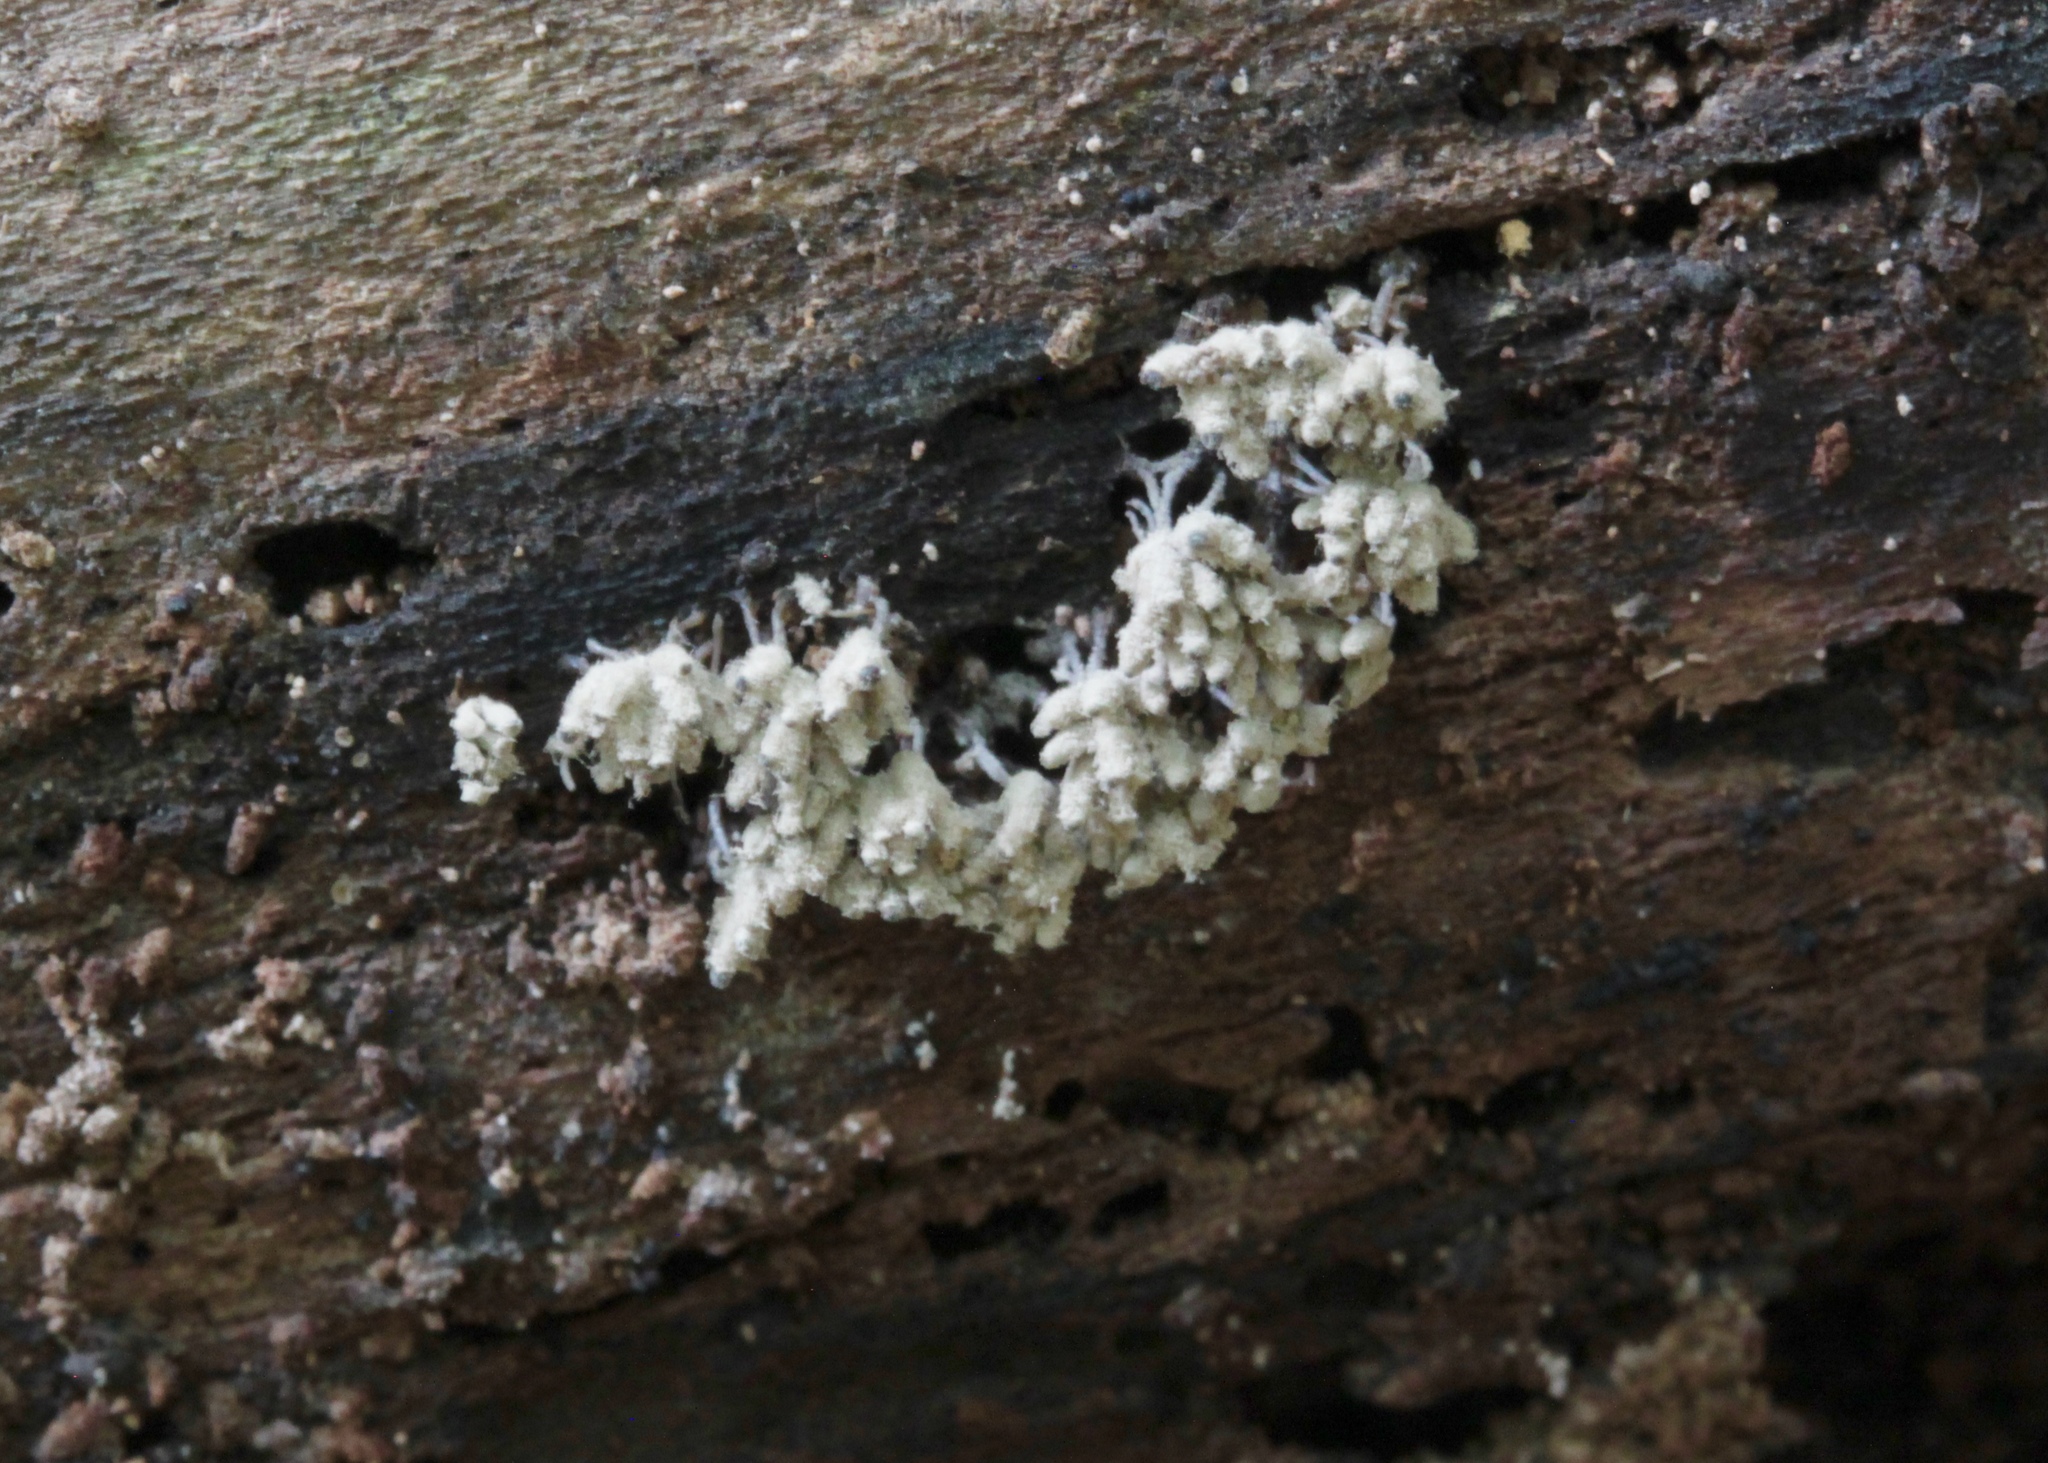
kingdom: Protozoa
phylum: Mycetozoa
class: Myxomycetes
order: Trichiales
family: Arcyriaceae
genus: Arcyria
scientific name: Arcyria cinerea
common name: White carnival candy slime mold
